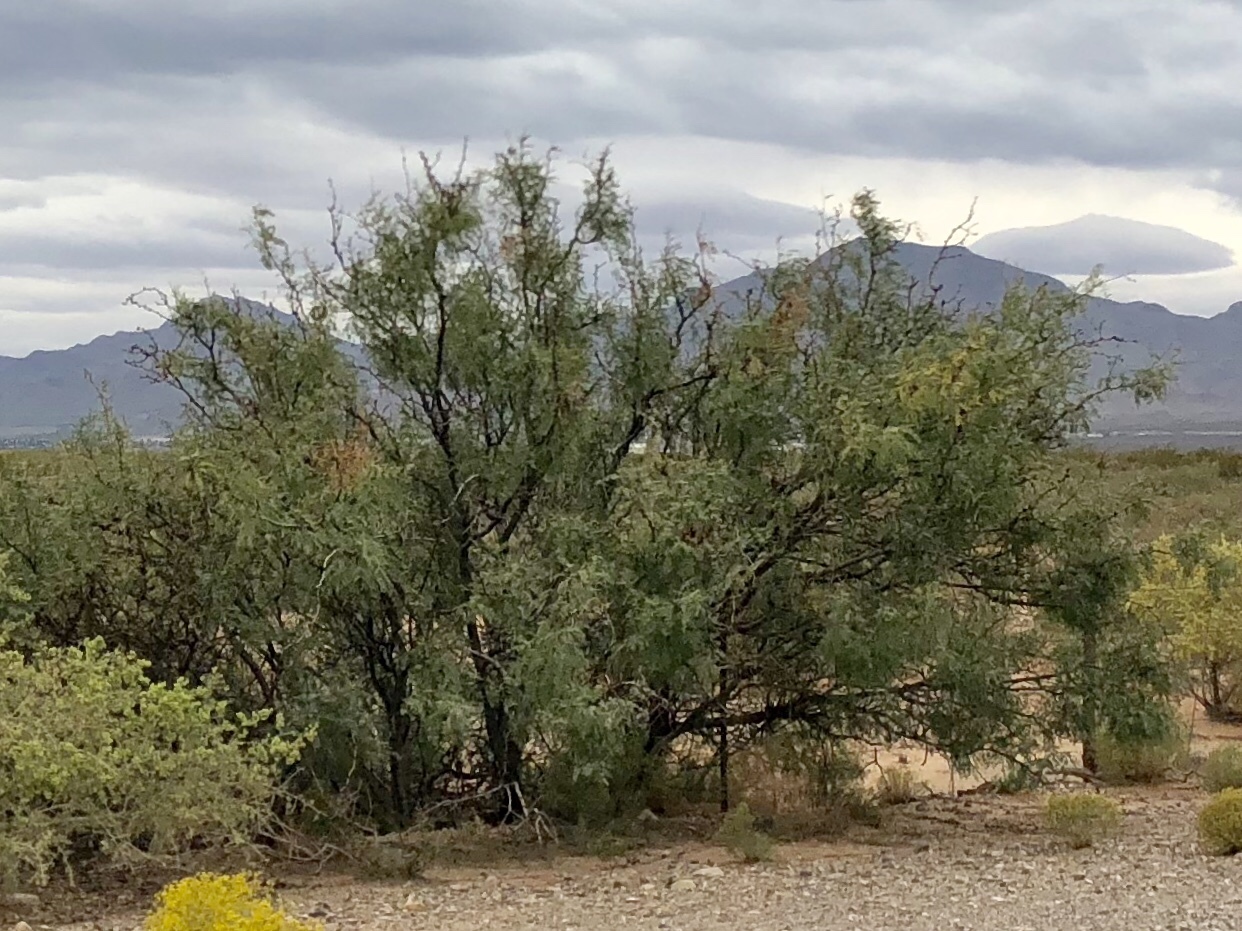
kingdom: Plantae
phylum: Tracheophyta
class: Magnoliopsida
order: Fabales
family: Fabaceae
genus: Prosopis
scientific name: Prosopis glandulosa
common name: Honey mesquite
